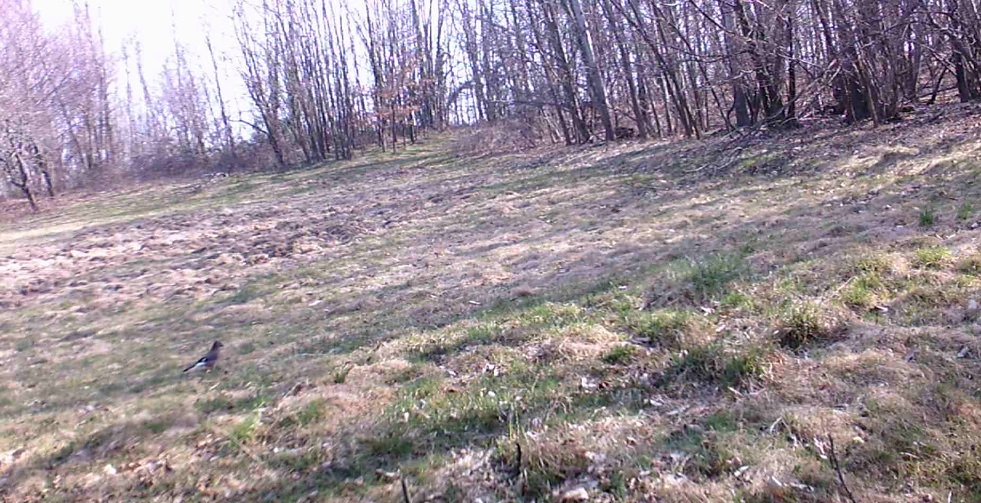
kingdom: Animalia
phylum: Chordata
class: Aves
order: Passeriformes
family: Corvidae
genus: Garrulus
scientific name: Garrulus glandarius
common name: Eurasian jay
